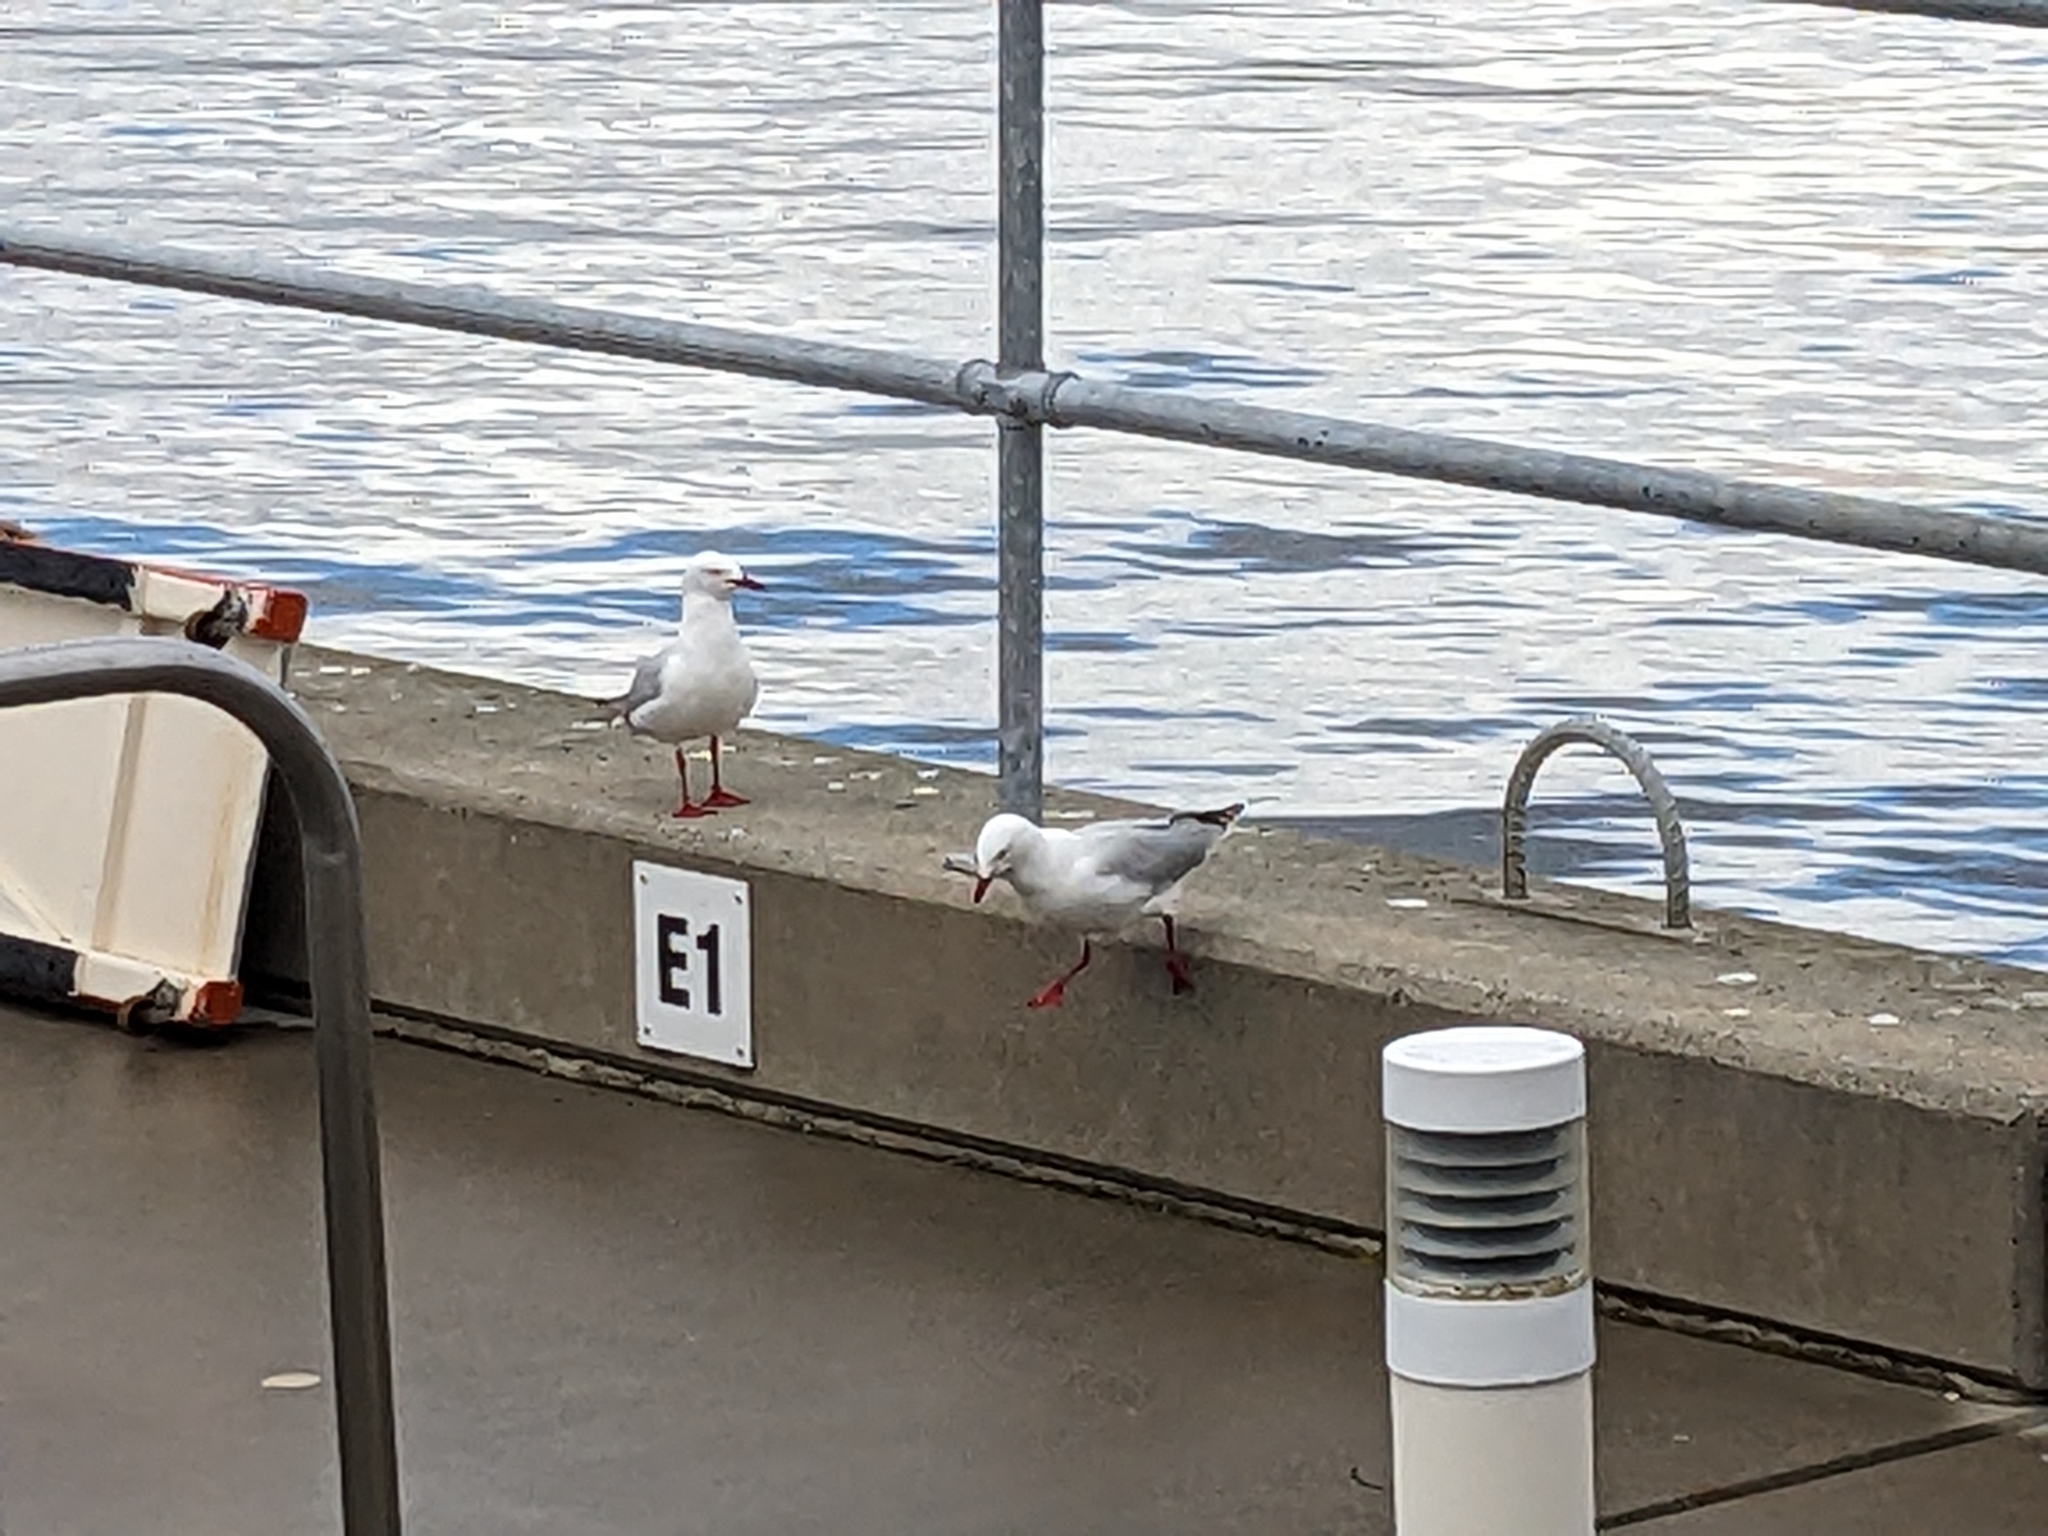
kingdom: Animalia
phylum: Chordata
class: Aves
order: Charadriiformes
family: Laridae
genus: Chroicocephalus
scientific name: Chroicocephalus novaehollandiae
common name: Silver gull
